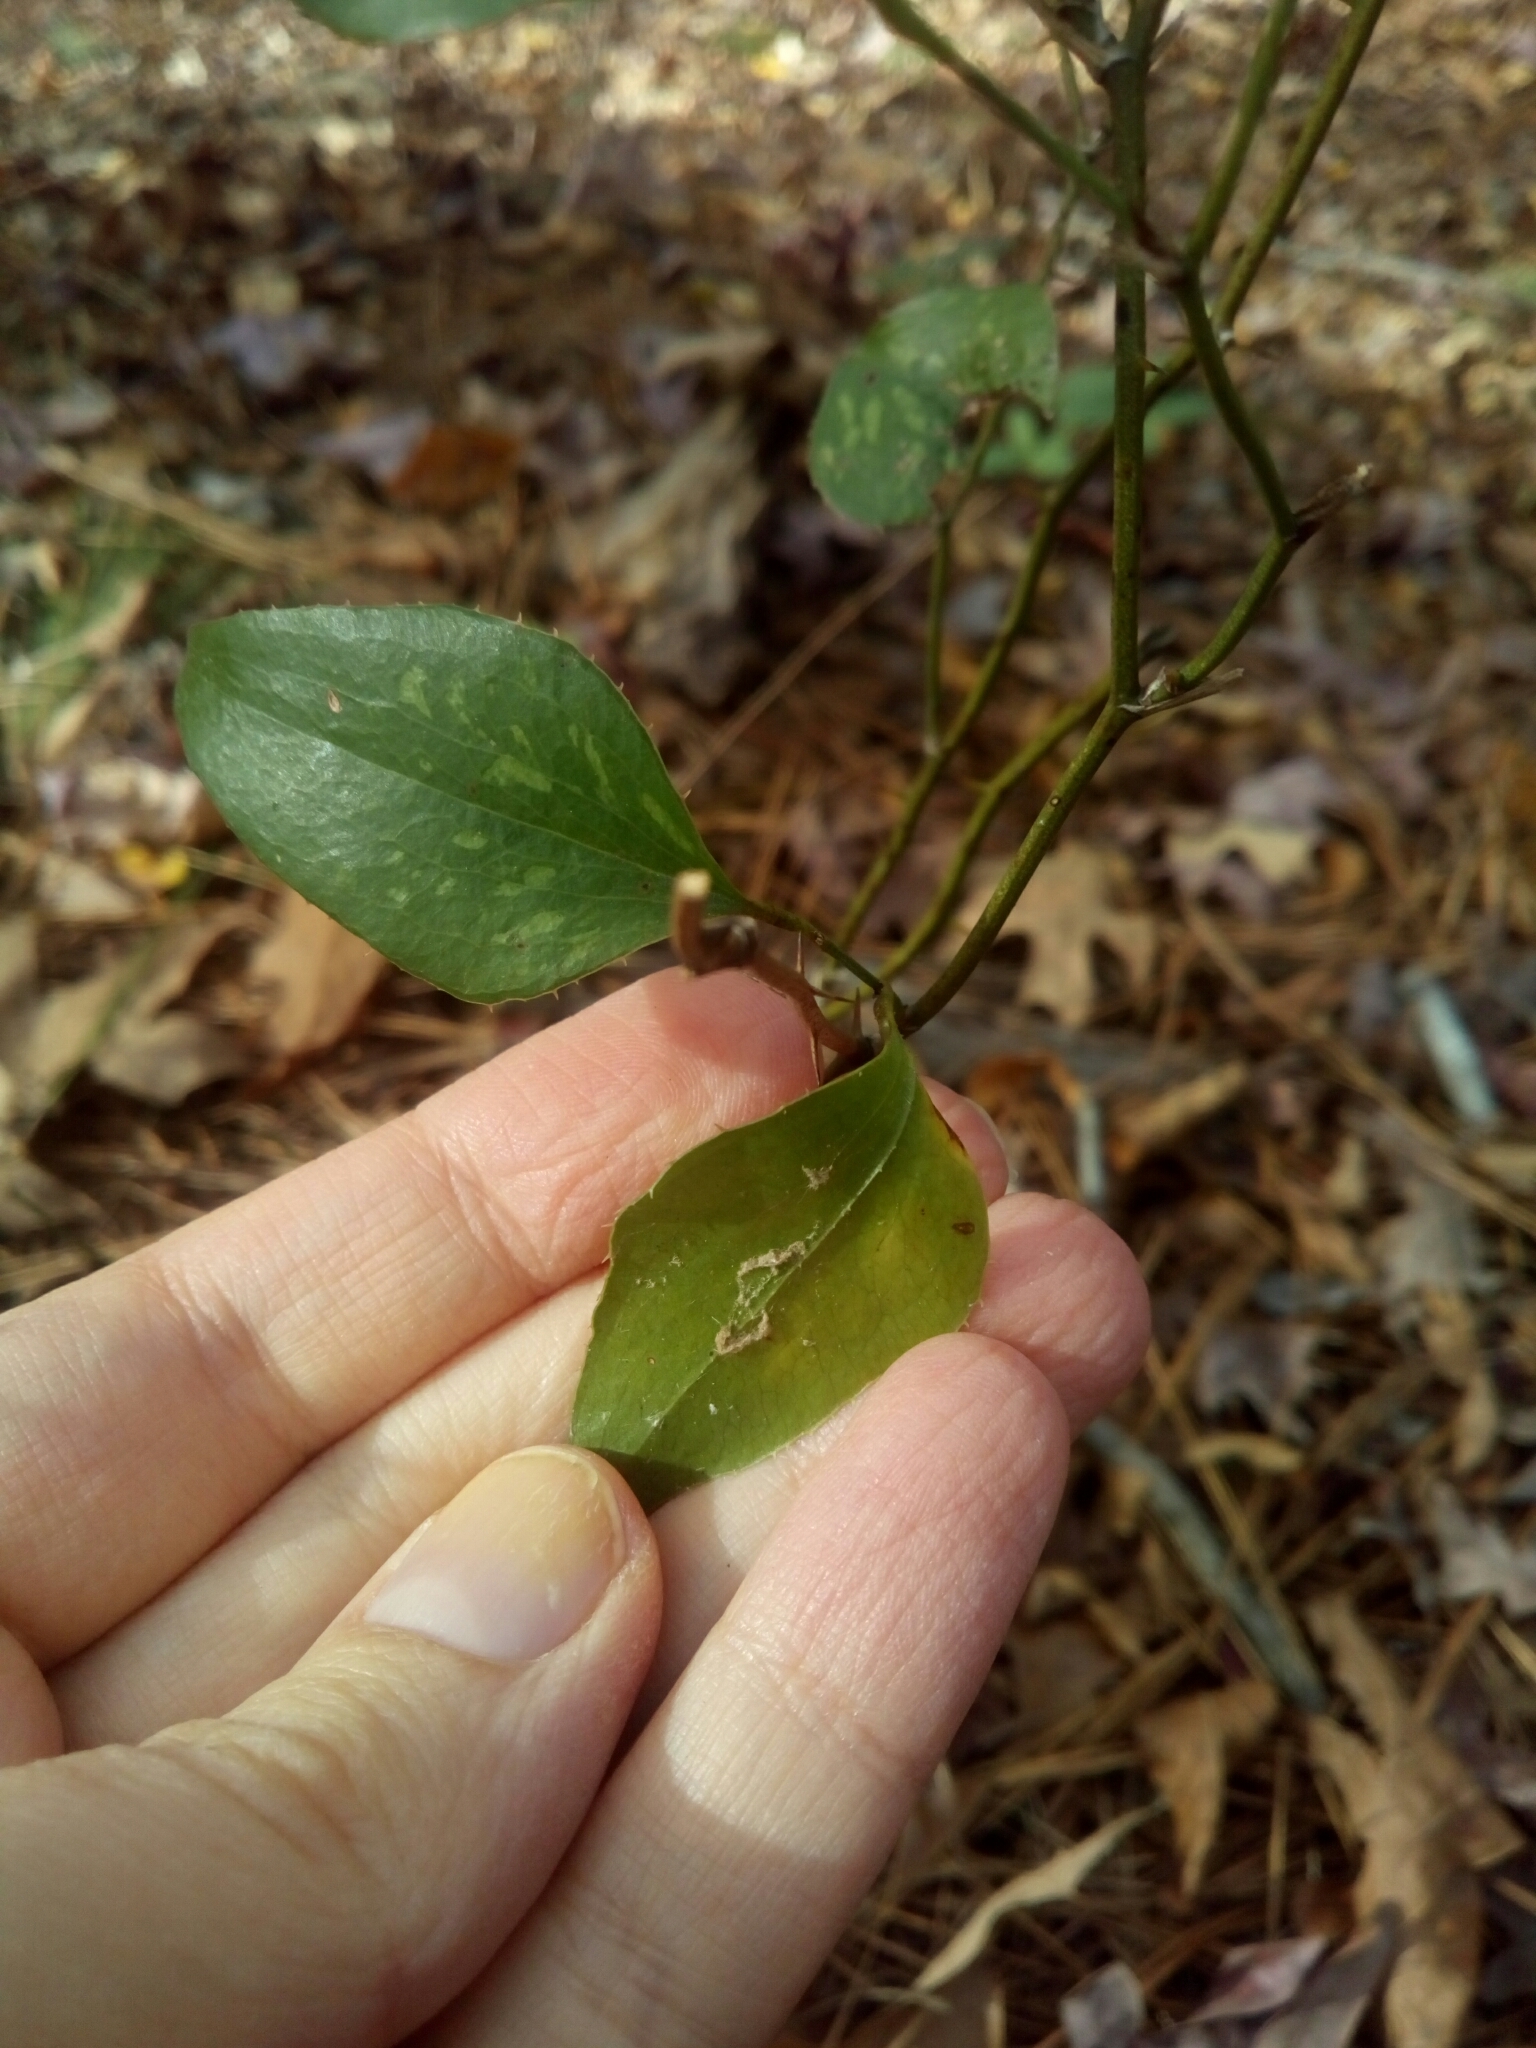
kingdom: Plantae
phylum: Tracheophyta
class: Liliopsida
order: Liliales
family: Smilacaceae
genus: Smilax
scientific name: Smilax bona-nox
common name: Catbrier
